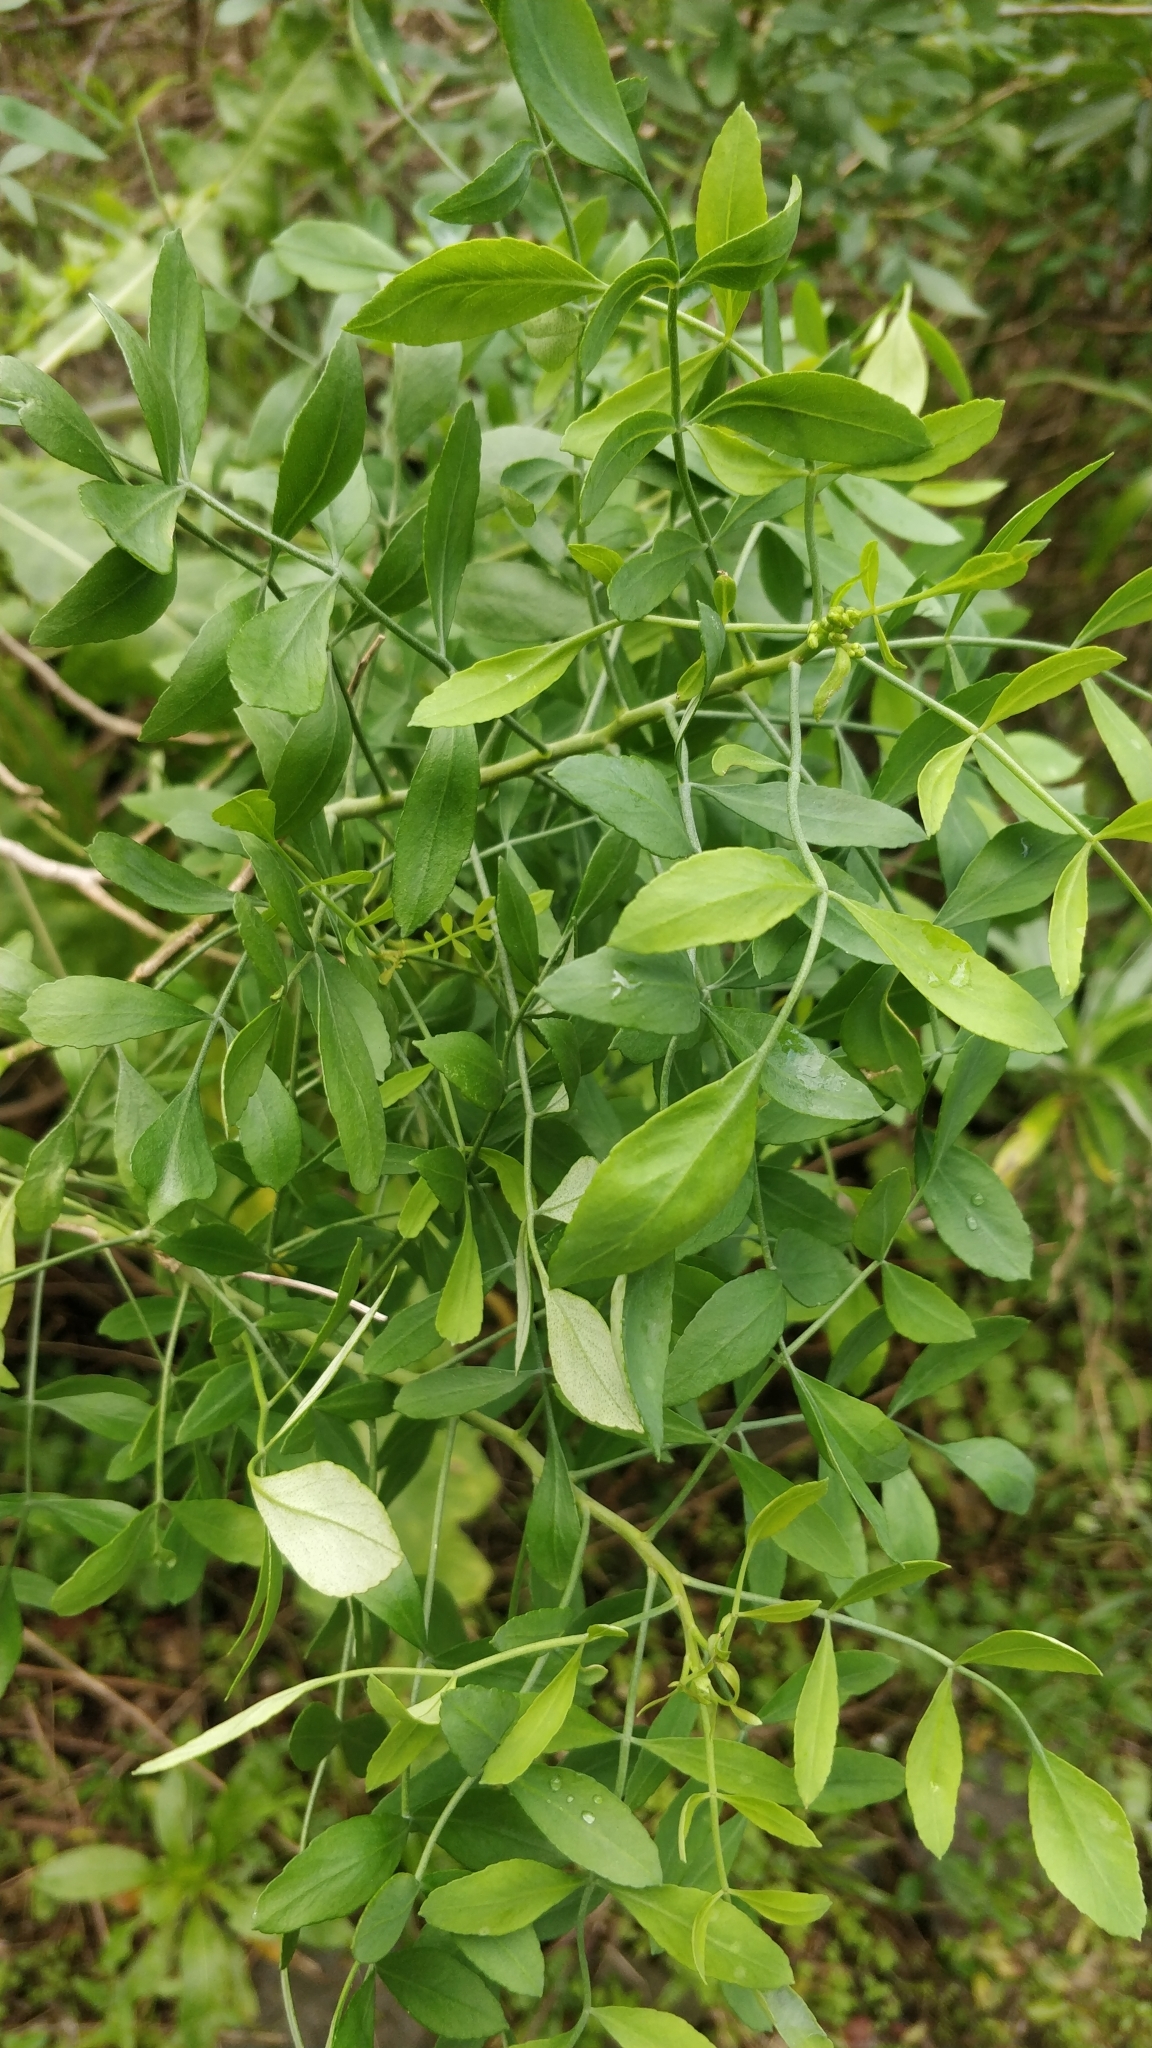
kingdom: Plantae
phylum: Tracheophyta
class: Magnoliopsida
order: Sapindales
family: Rutaceae
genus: Ruta
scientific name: Ruta pinnata
